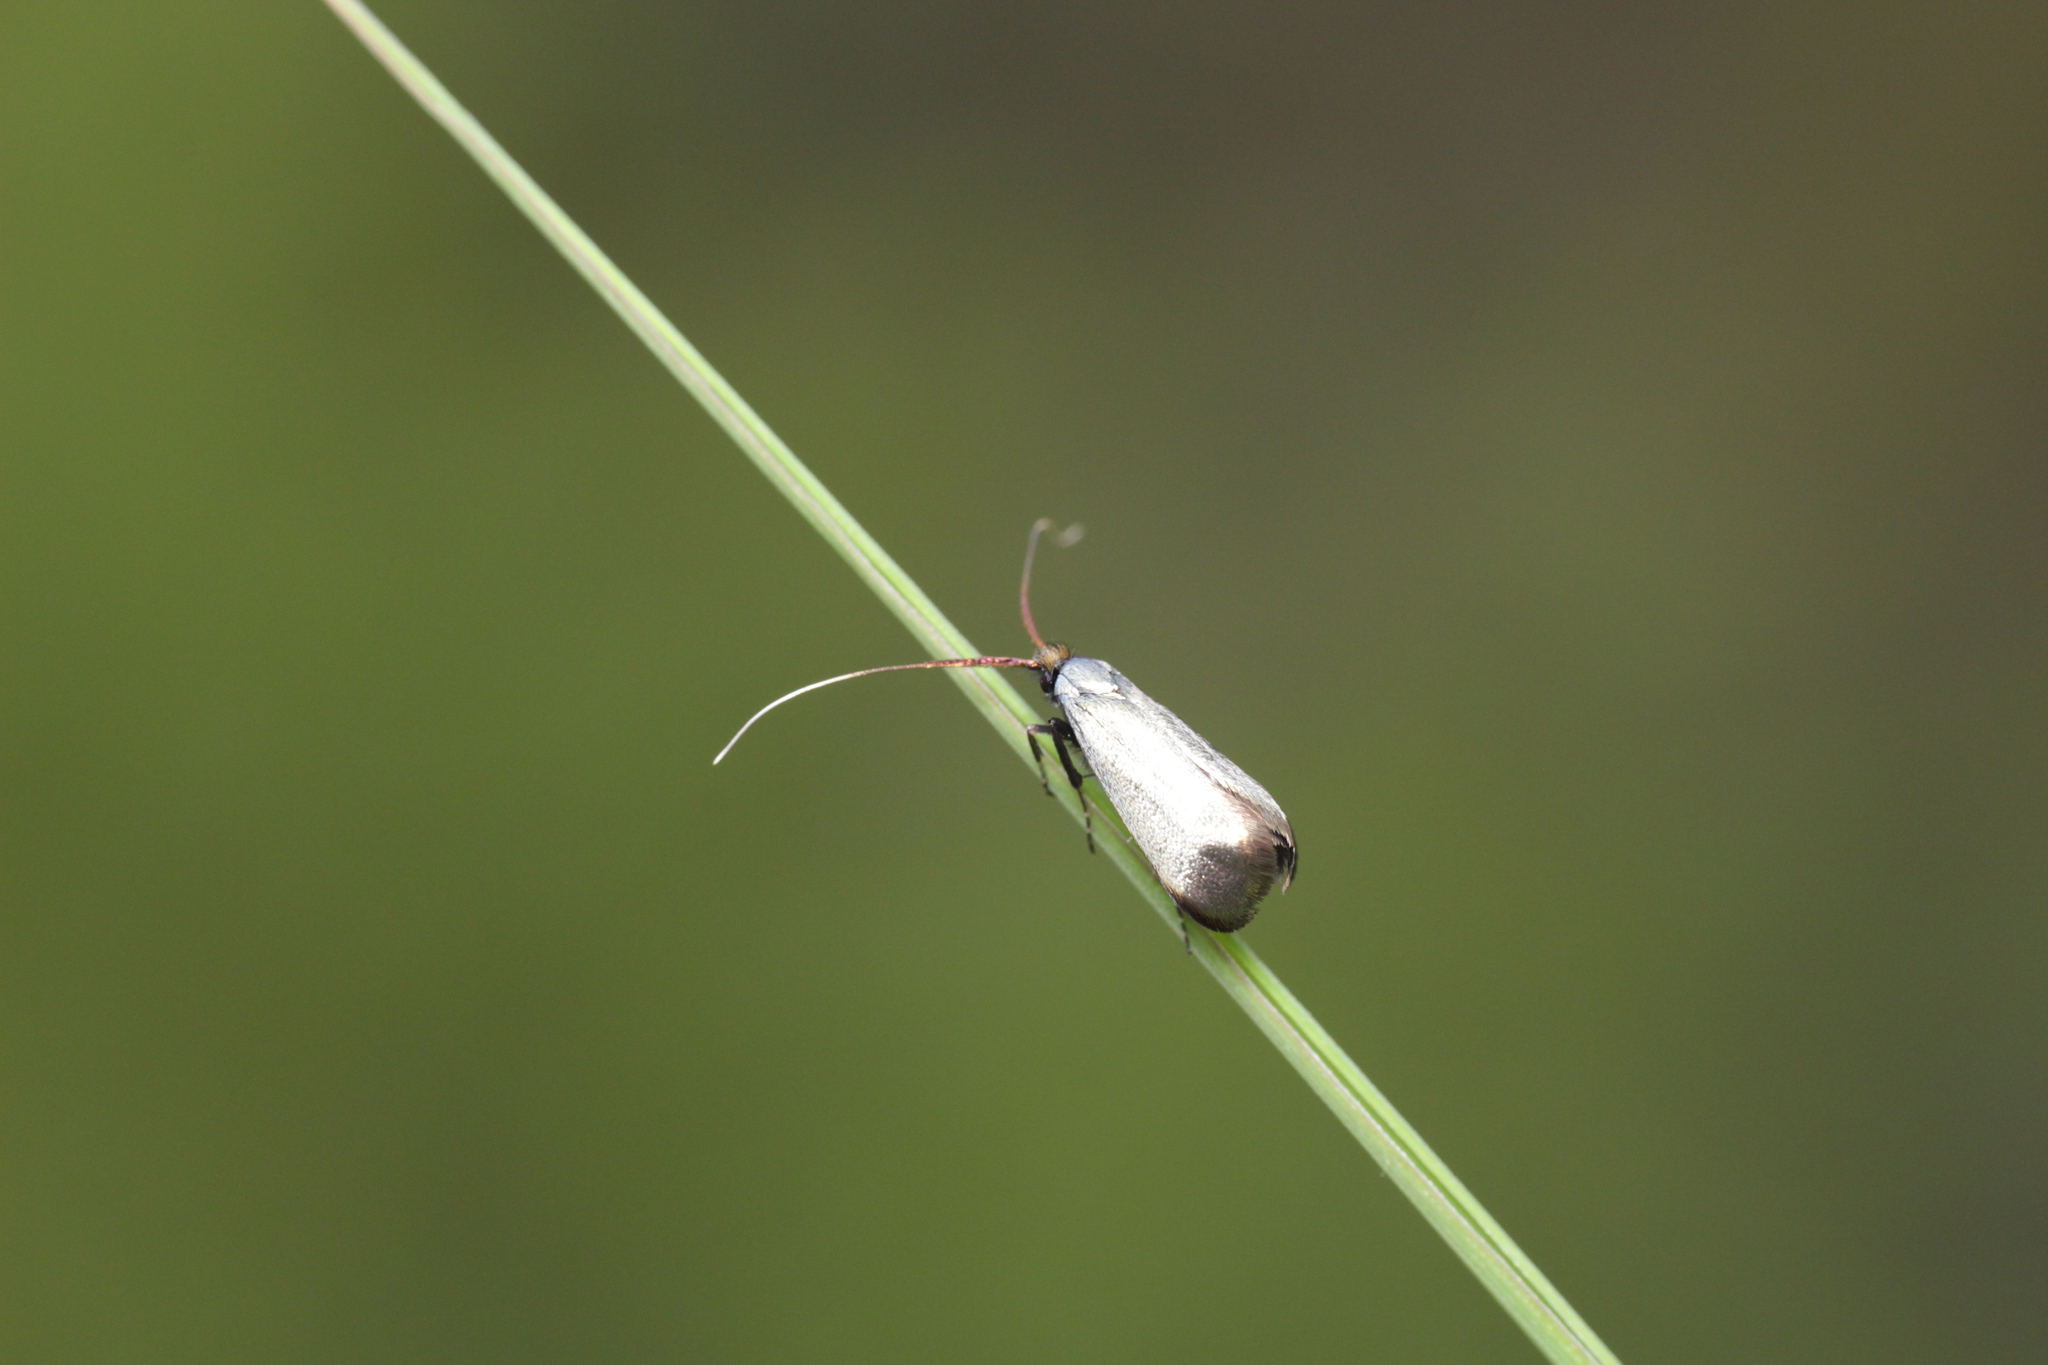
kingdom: Animalia
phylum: Arthropoda
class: Insecta
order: Lepidoptera
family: Adelidae
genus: Adela
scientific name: Adela viridella
